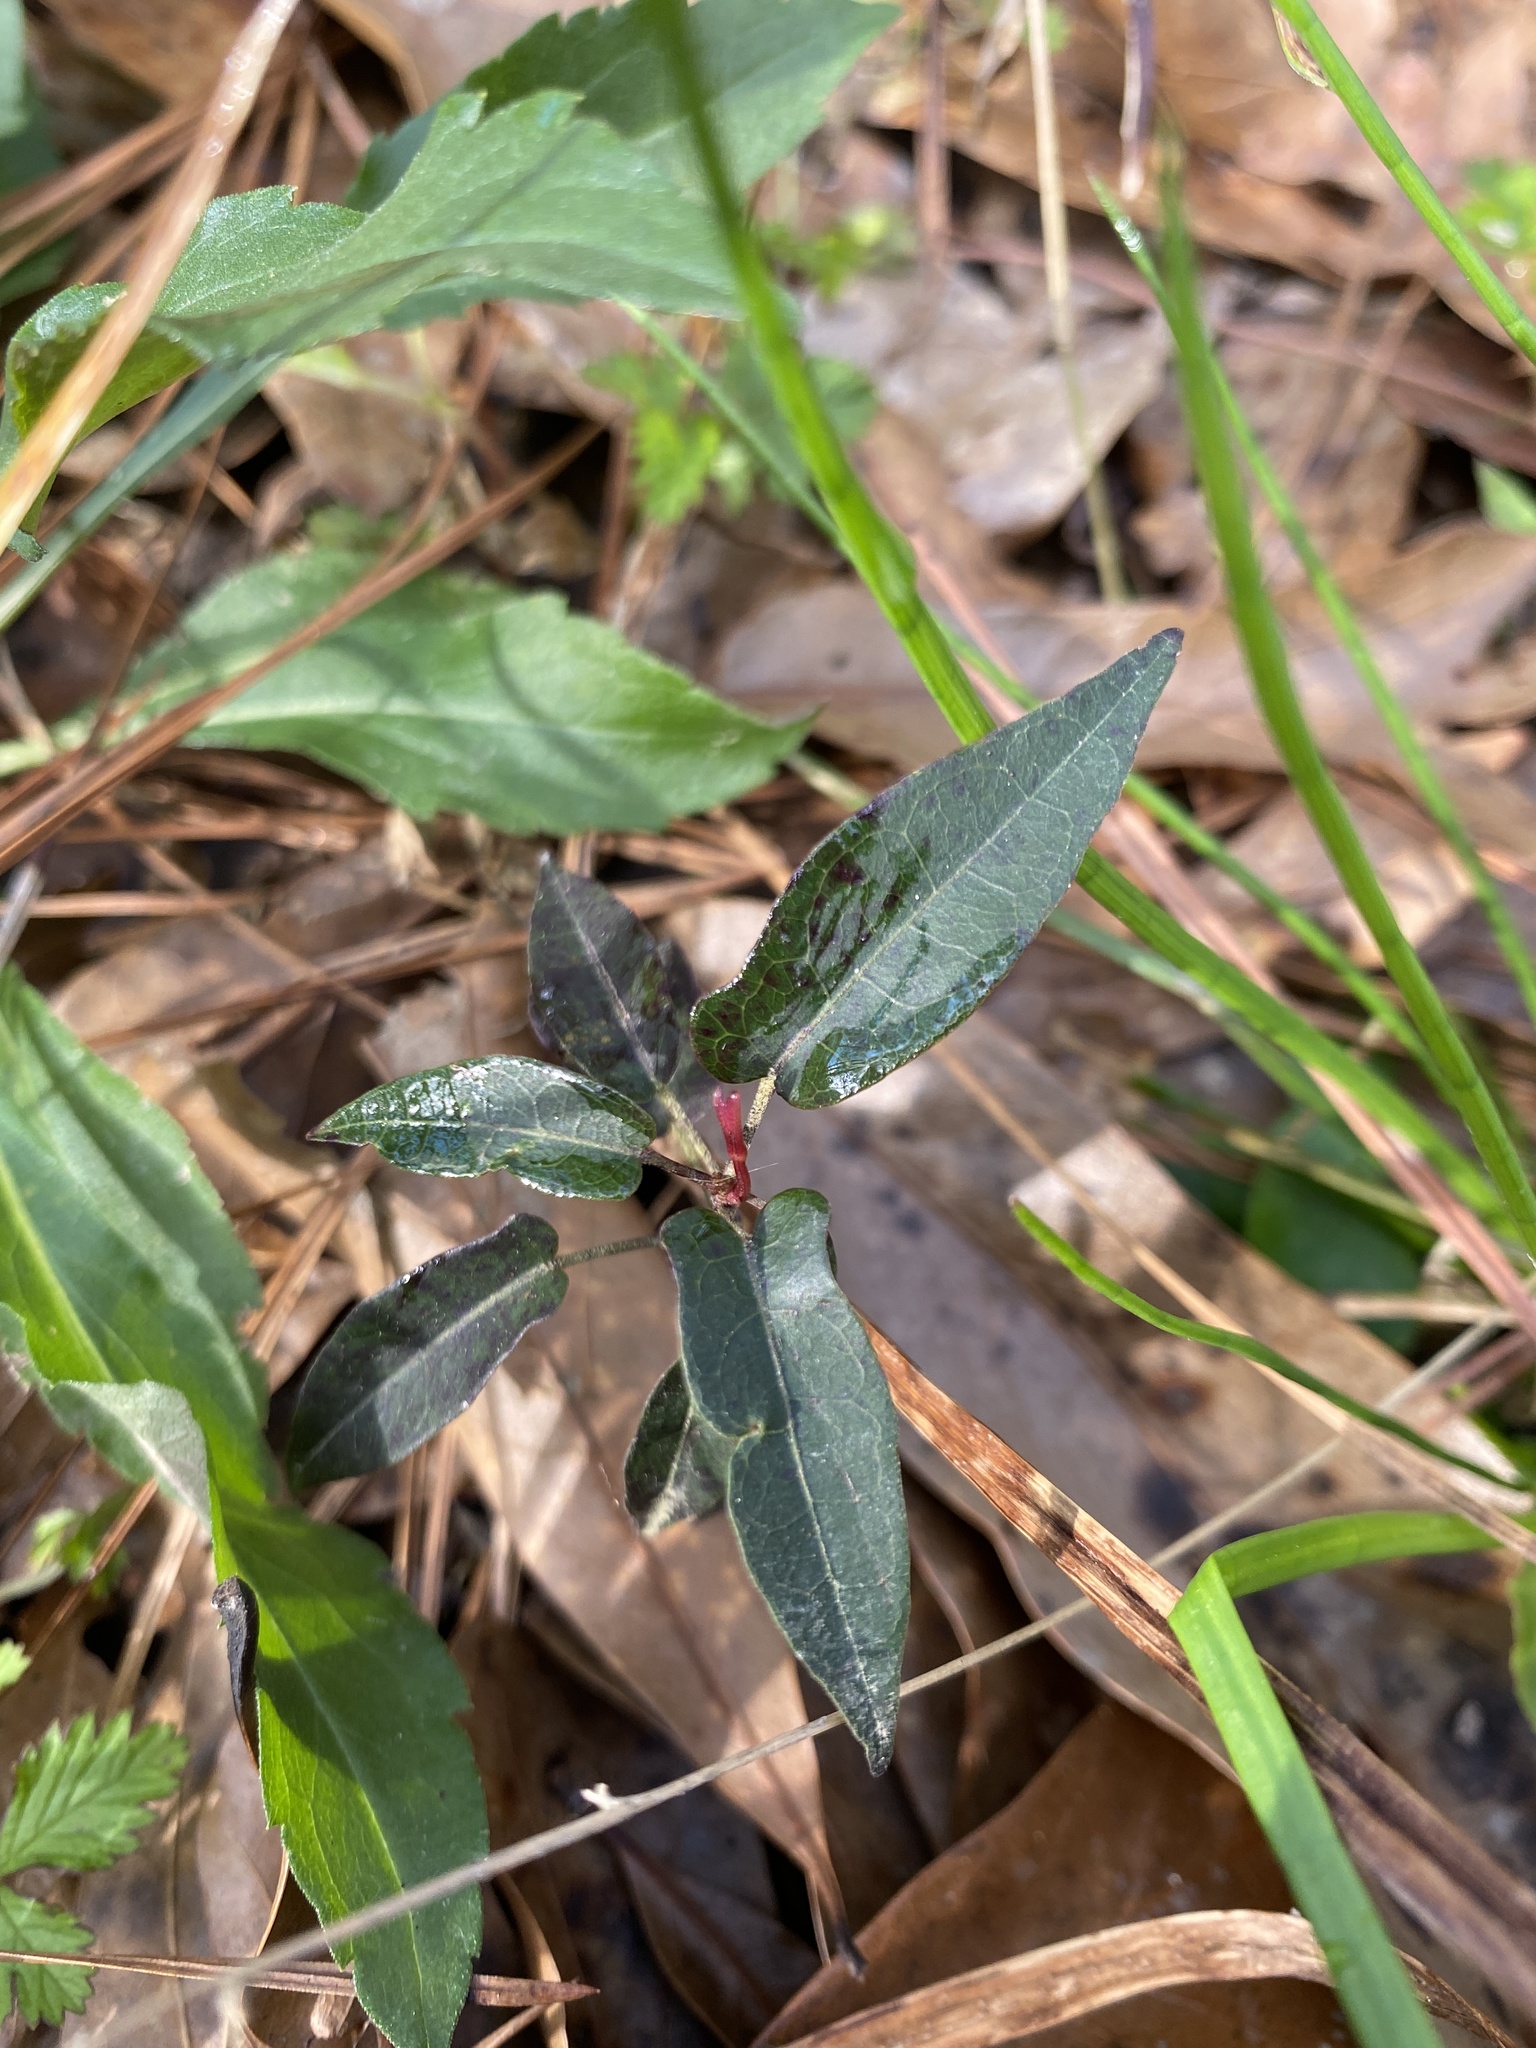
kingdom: Plantae
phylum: Tracheophyta
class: Magnoliopsida
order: Piperales
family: Aristolochiaceae
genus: Endodeca
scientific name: Endodeca serpentaria
